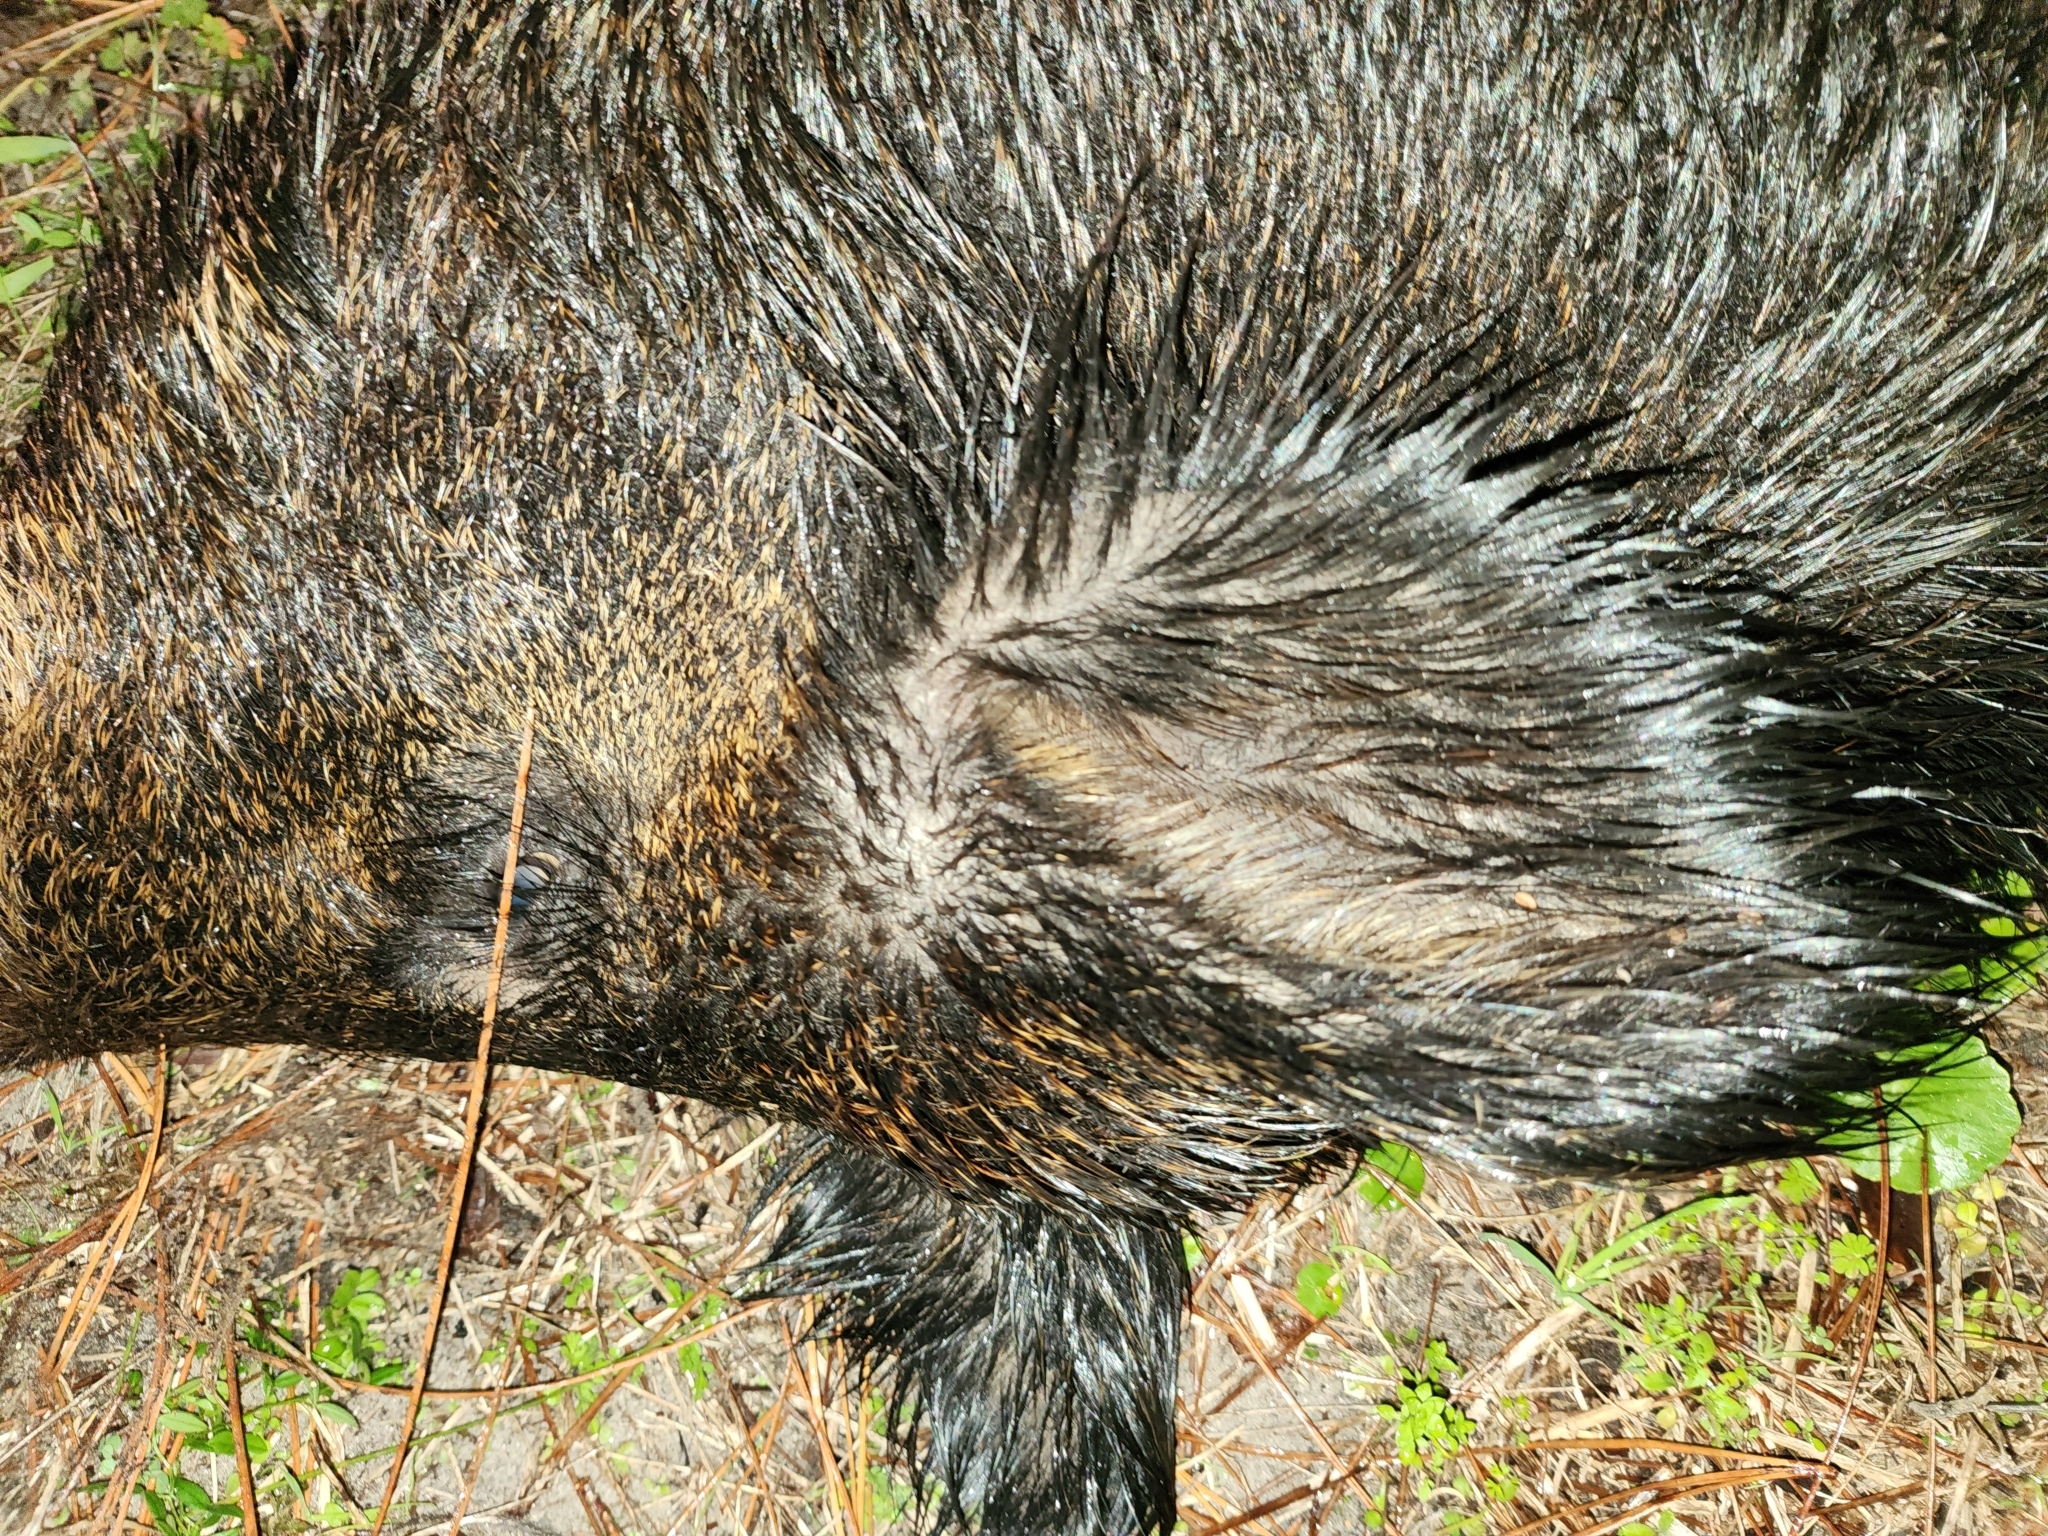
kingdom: Animalia
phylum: Chordata
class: Mammalia
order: Artiodactyla
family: Suidae
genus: Sus
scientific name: Sus scrofa
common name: Wild boar
